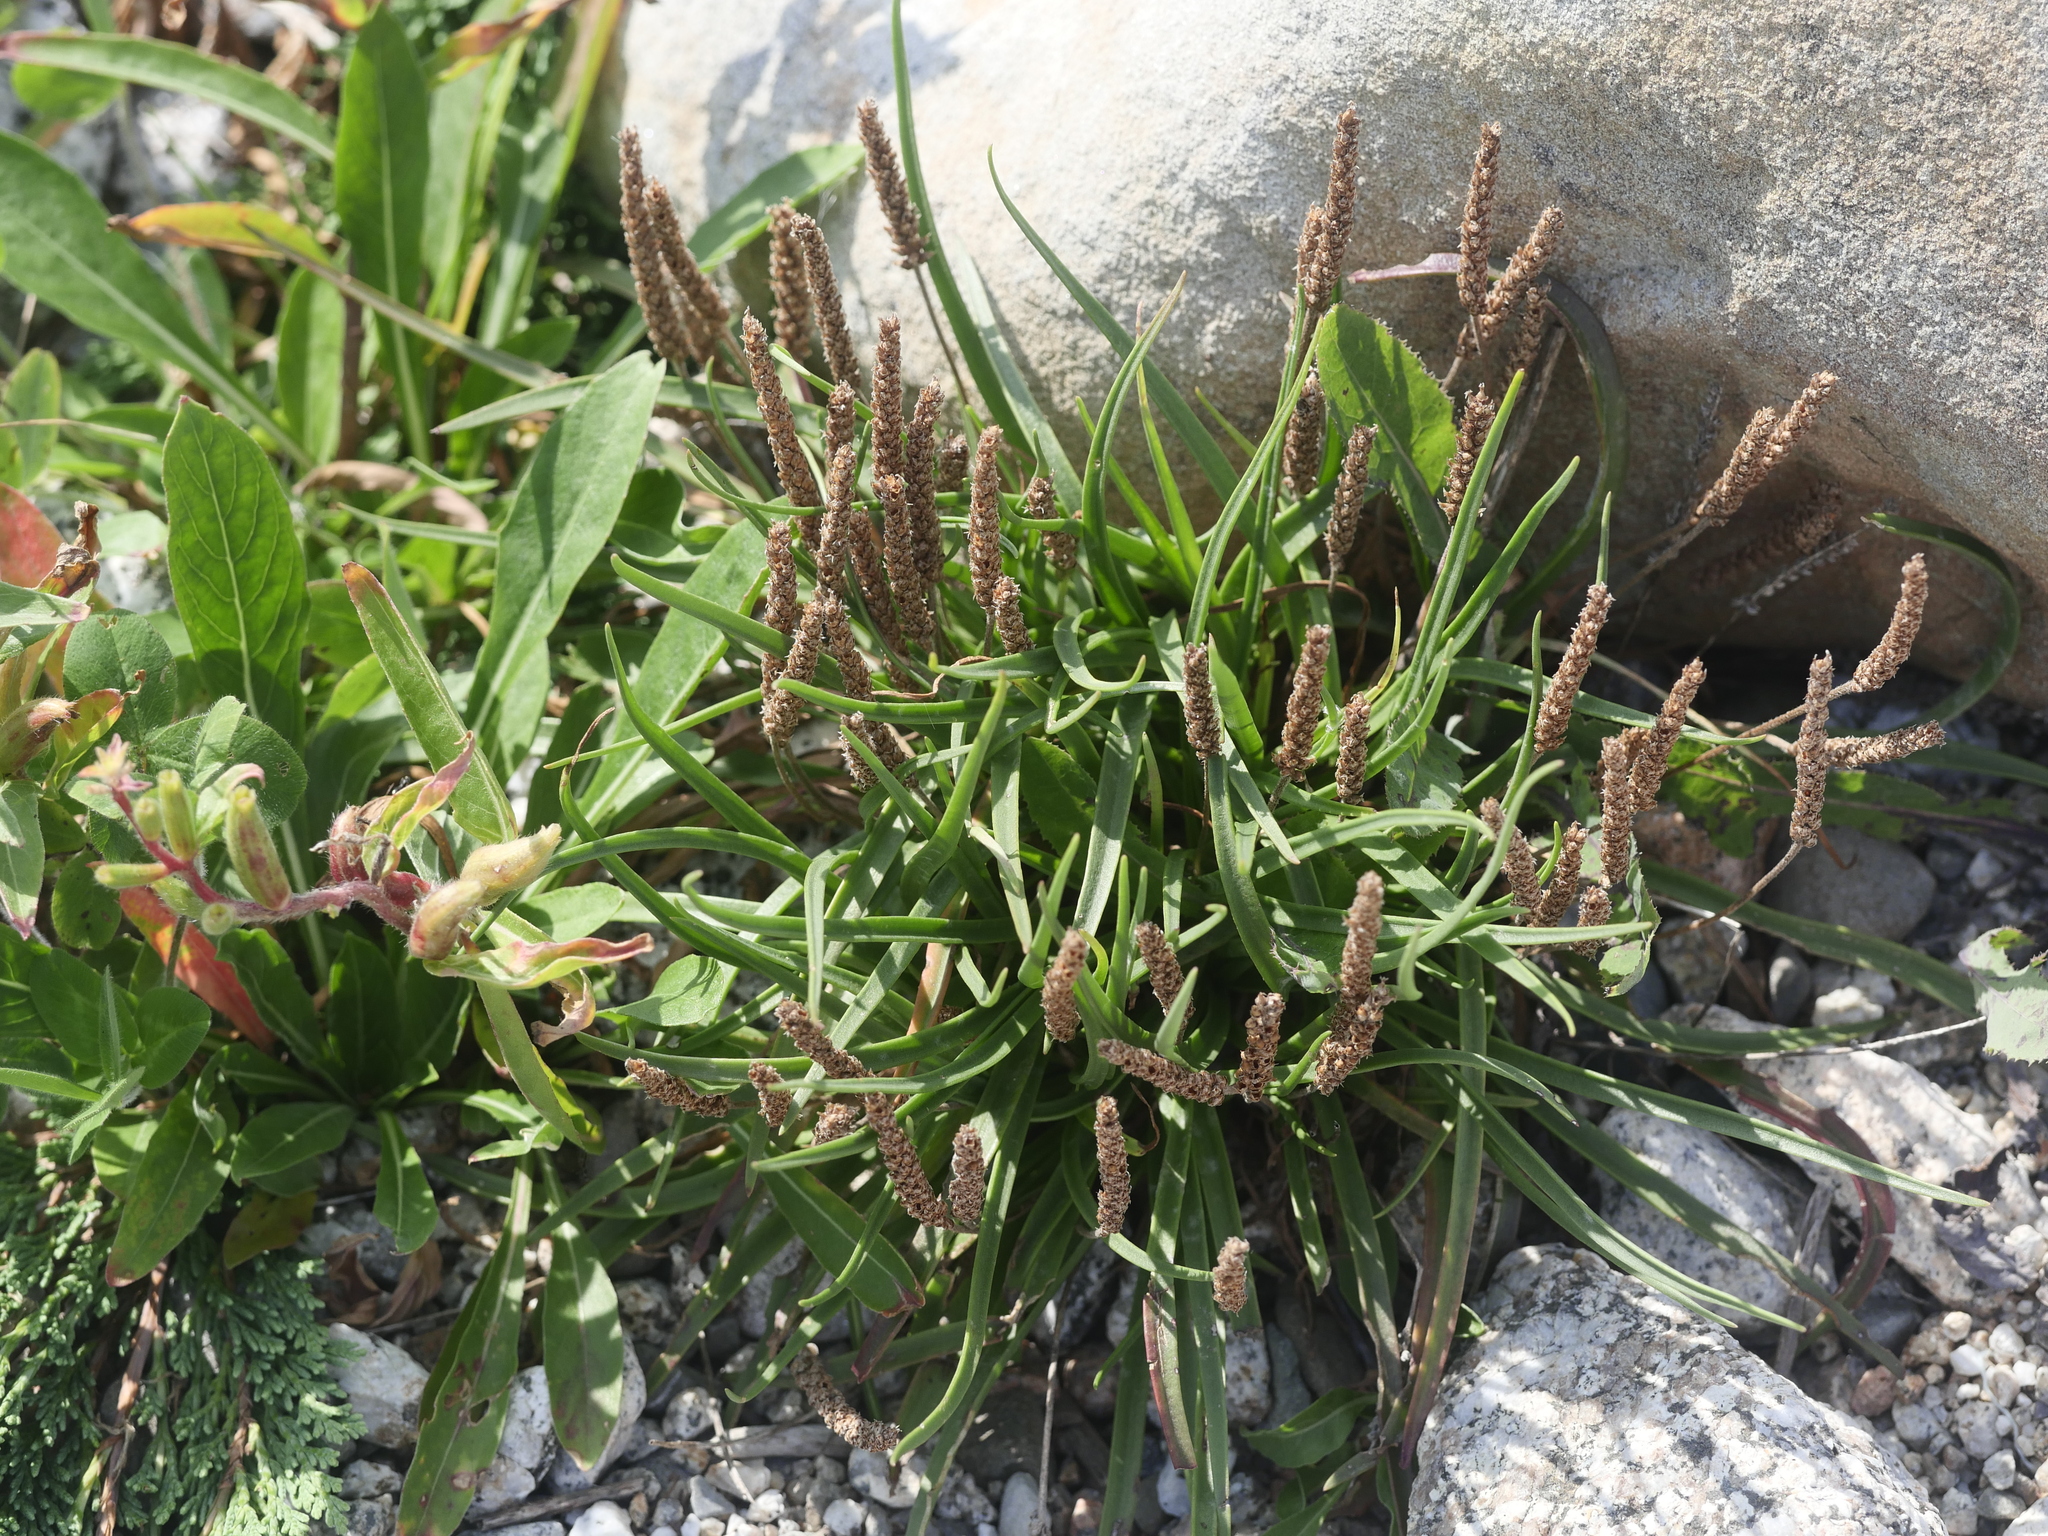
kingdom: Plantae
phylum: Tracheophyta
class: Magnoliopsida
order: Lamiales
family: Plantaginaceae
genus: Plantago
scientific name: Plantago maritima
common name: Sea plantain
